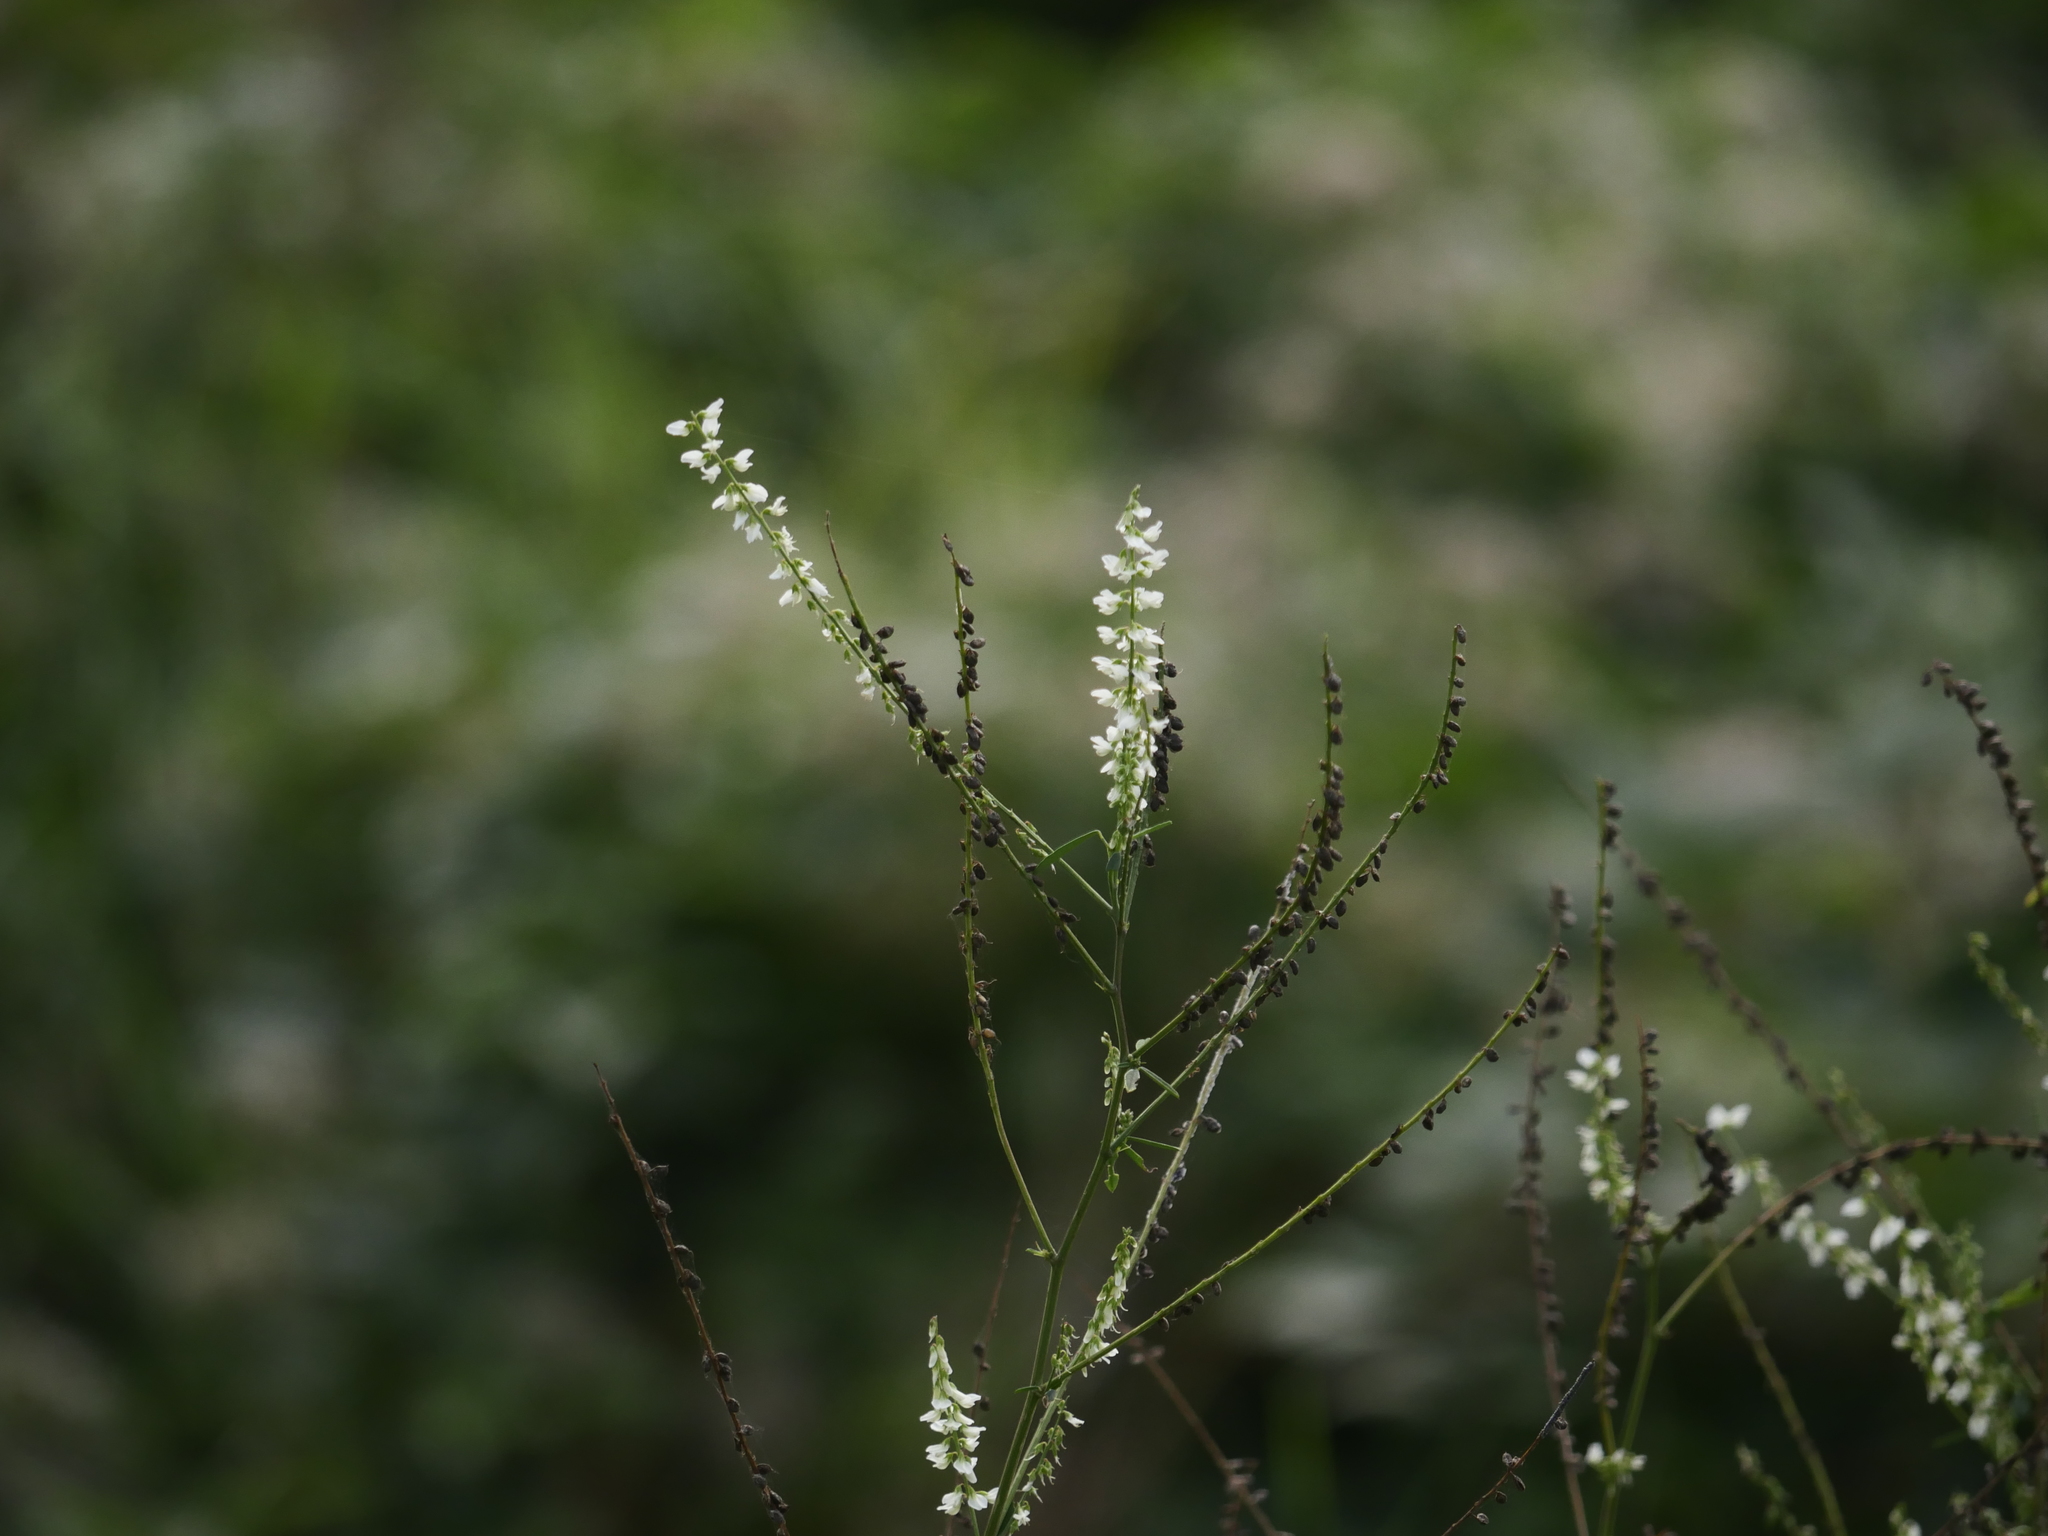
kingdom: Plantae
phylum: Tracheophyta
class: Magnoliopsida
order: Fabales
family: Fabaceae
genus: Melilotus
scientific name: Melilotus albus
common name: White melilot
